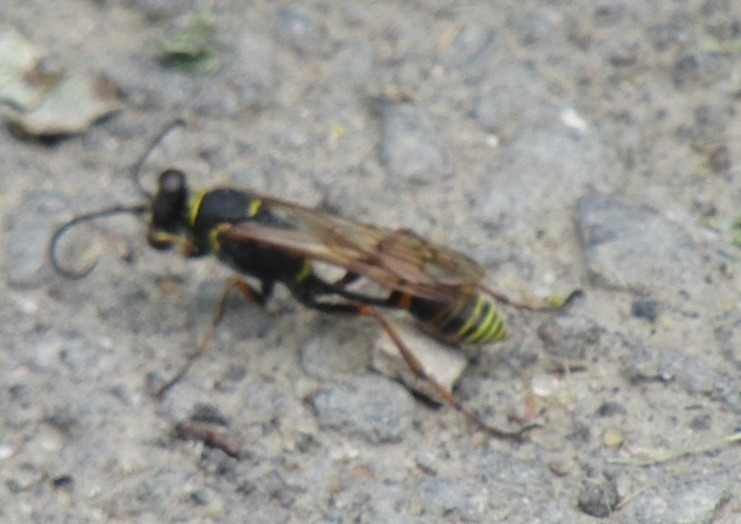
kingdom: Animalia
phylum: Arthropoda
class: Insecta
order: Hymenoptera
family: Sphecidae
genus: Sceliphron
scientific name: Sceliphron
